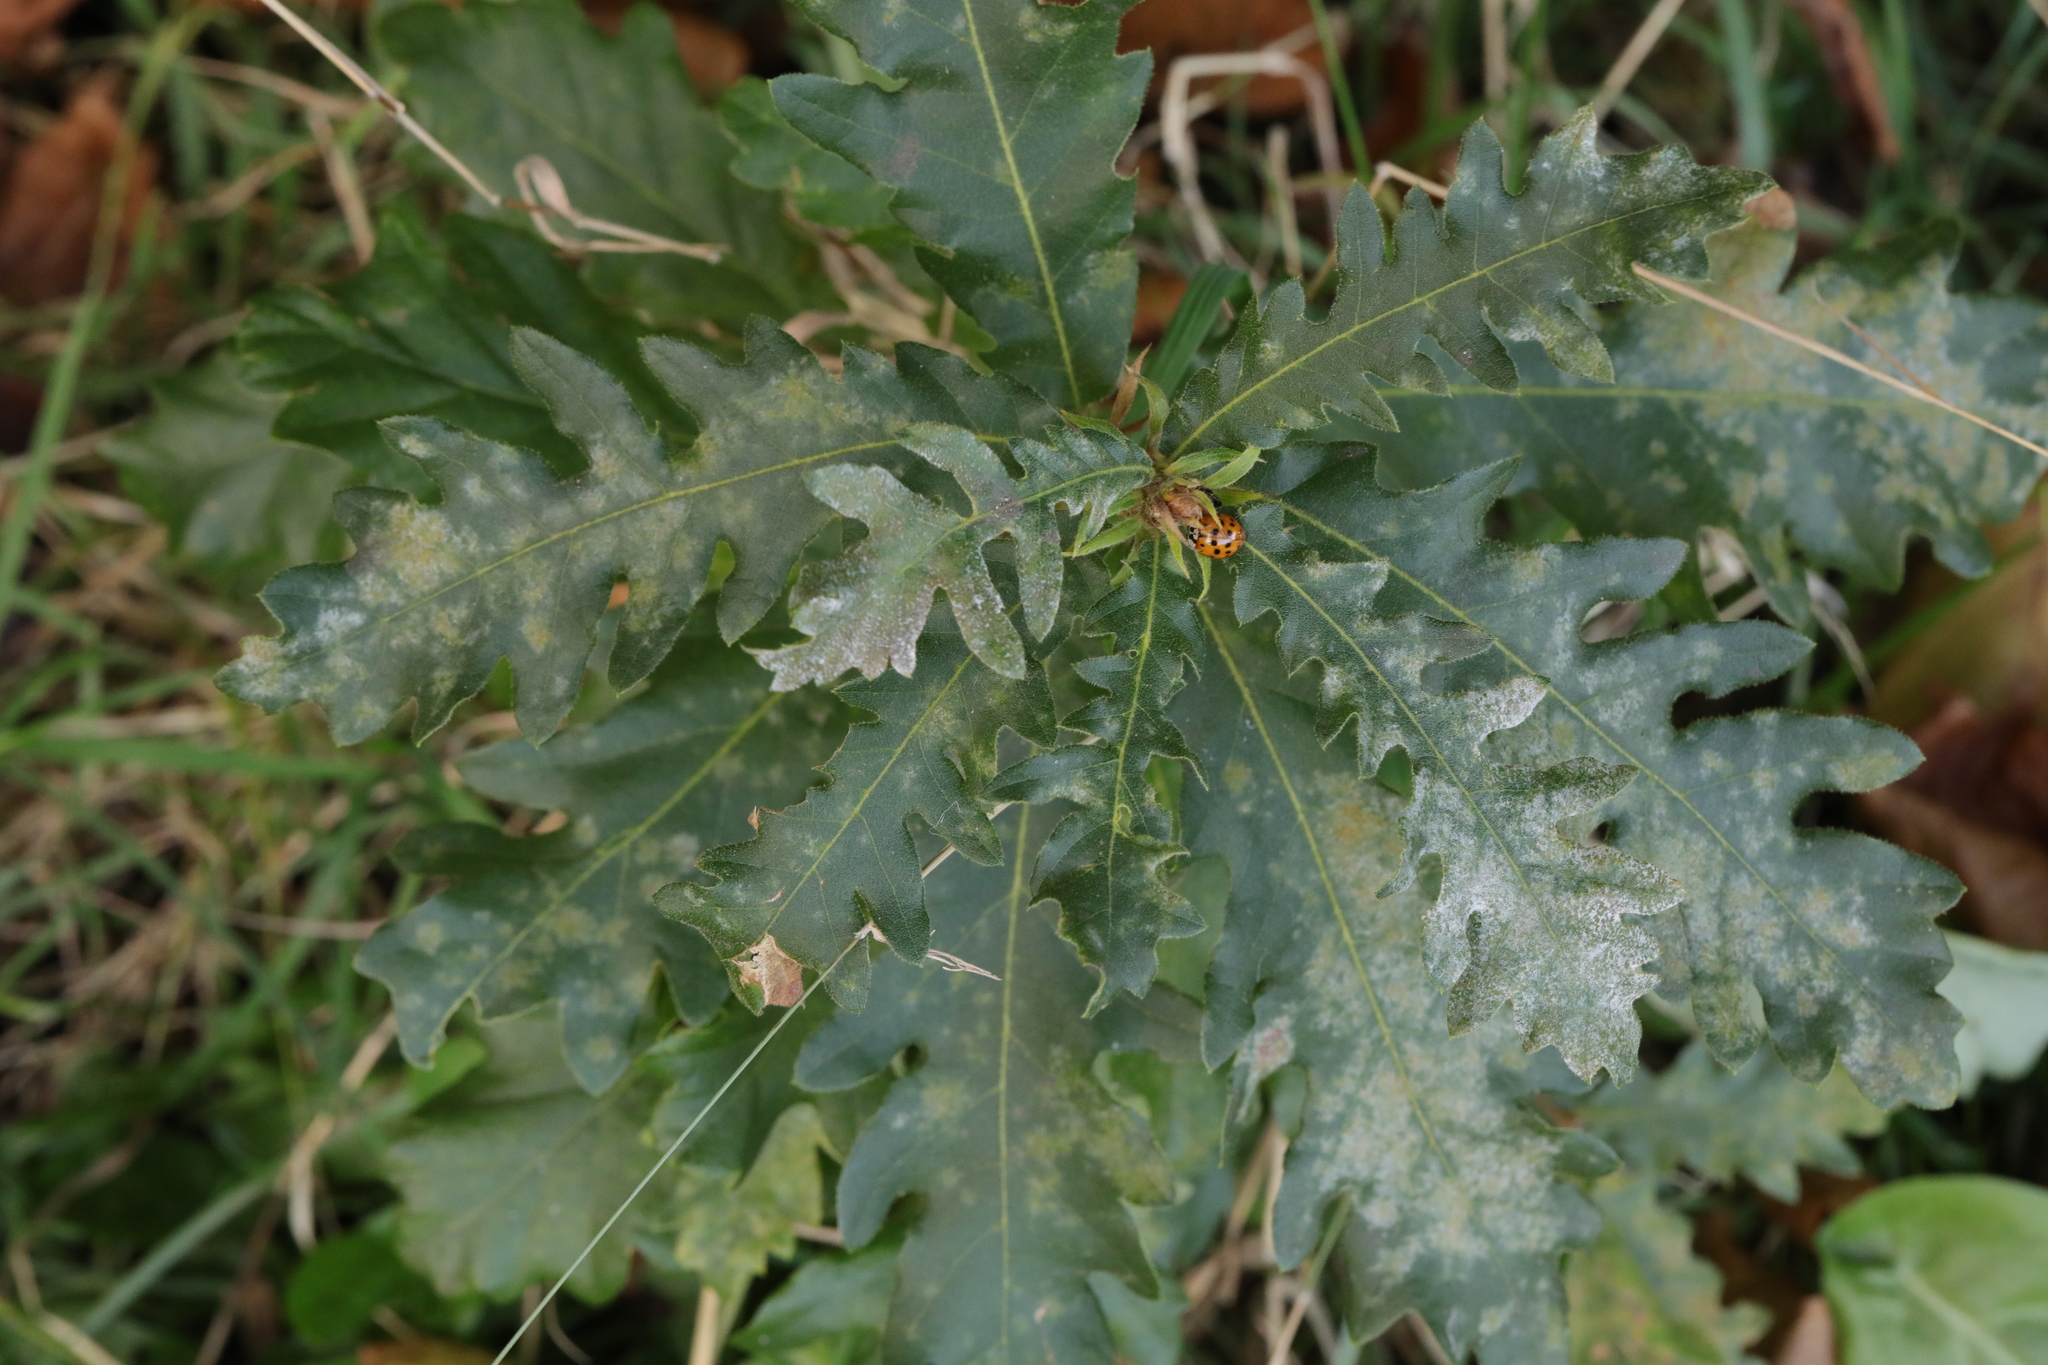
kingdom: Plantae
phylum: Tracheophyta
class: Magnoliopsida
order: Fagales
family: Fagaceae
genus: Quercus
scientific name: Quercus cerris
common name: Turkey oak
